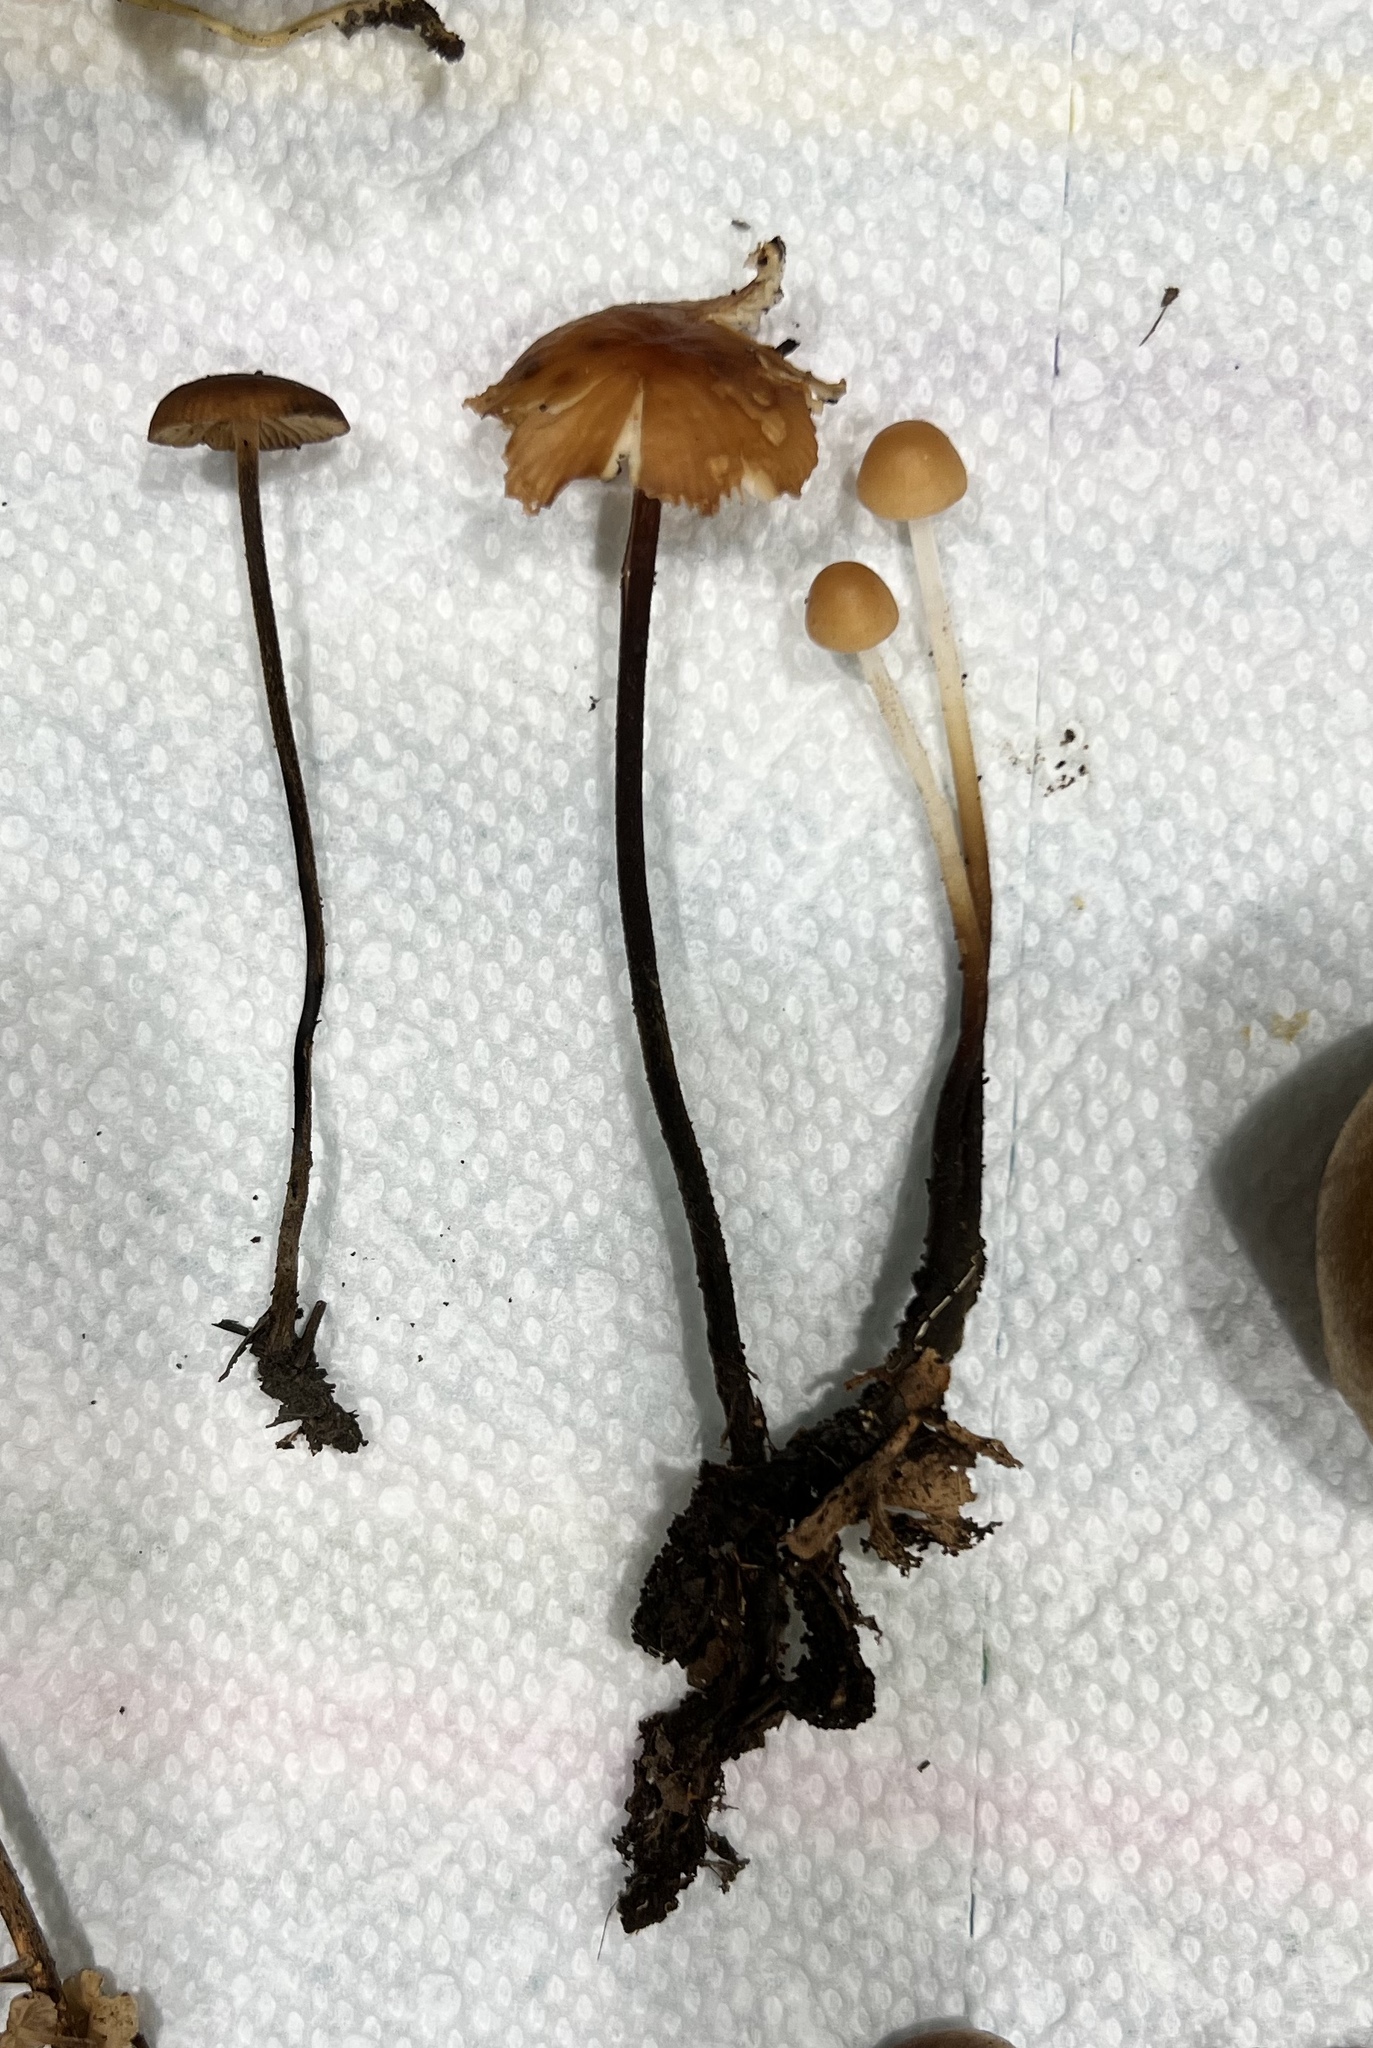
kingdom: Fungi
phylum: Basidiomycota
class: Agaricomycetes
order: Agaricales
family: Physalacriaceae
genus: Rhizomarasmius
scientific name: Rhizomarasmius pyrrhocephalus
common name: Hairy long stem marasmius
